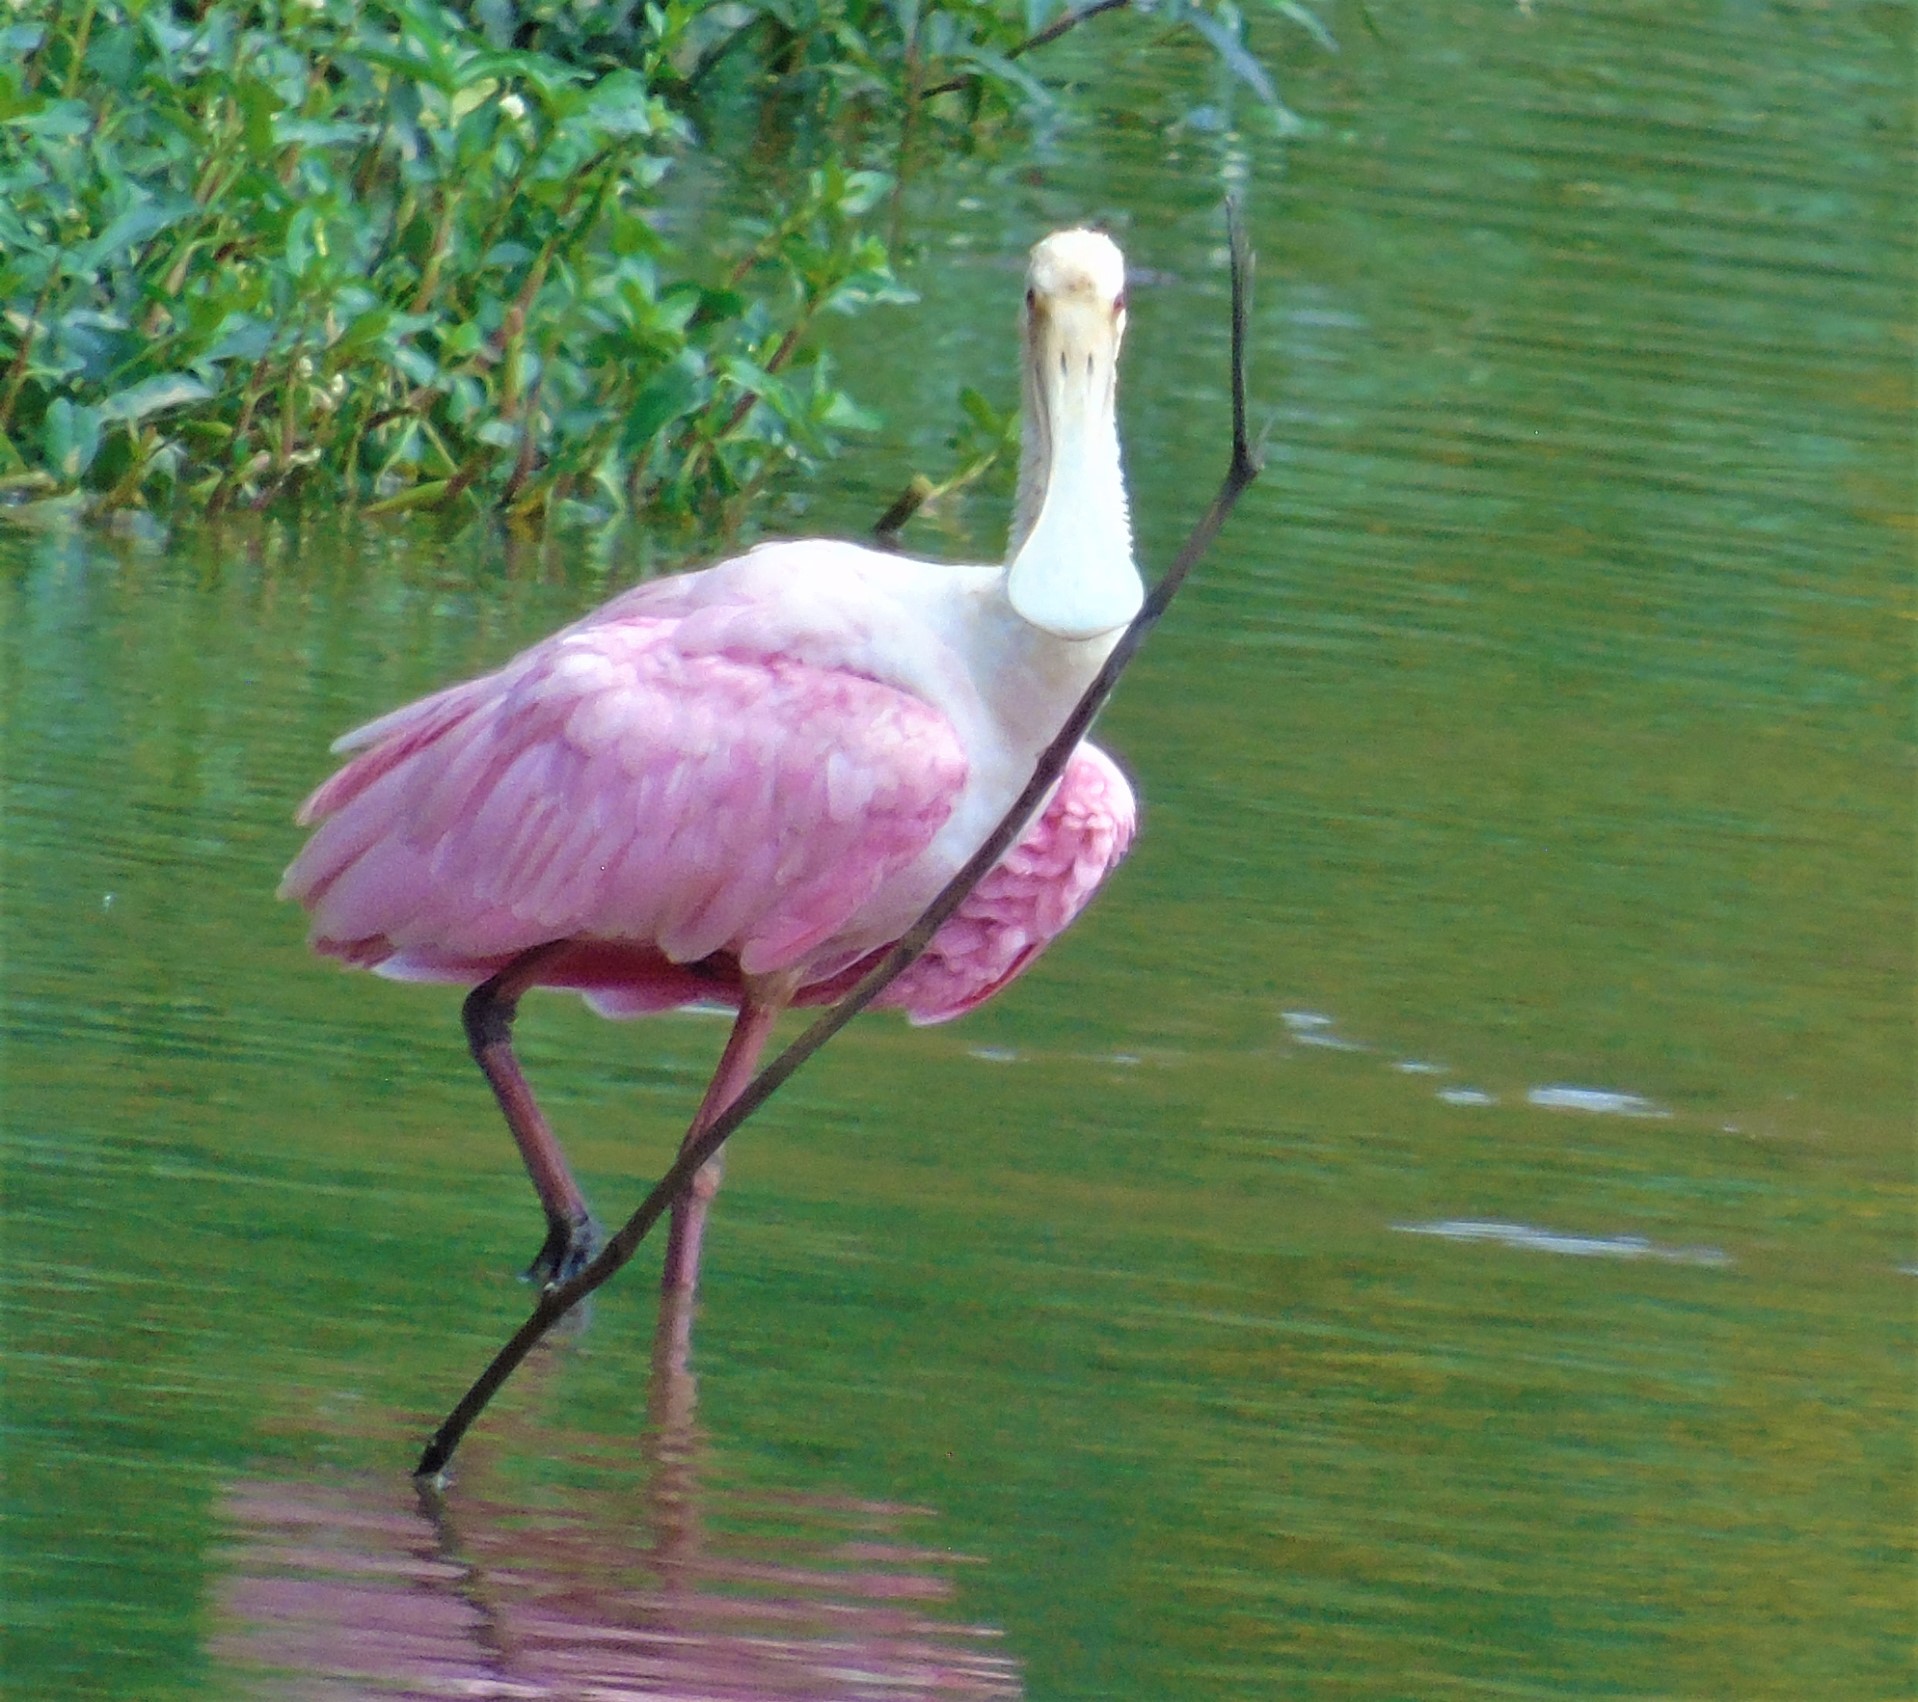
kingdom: Animalia
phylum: Chordata
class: Aves
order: Pelecaniformes
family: Threskiornithidae
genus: Platalea
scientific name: Platalea ajaja
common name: Roseate spoonbill
